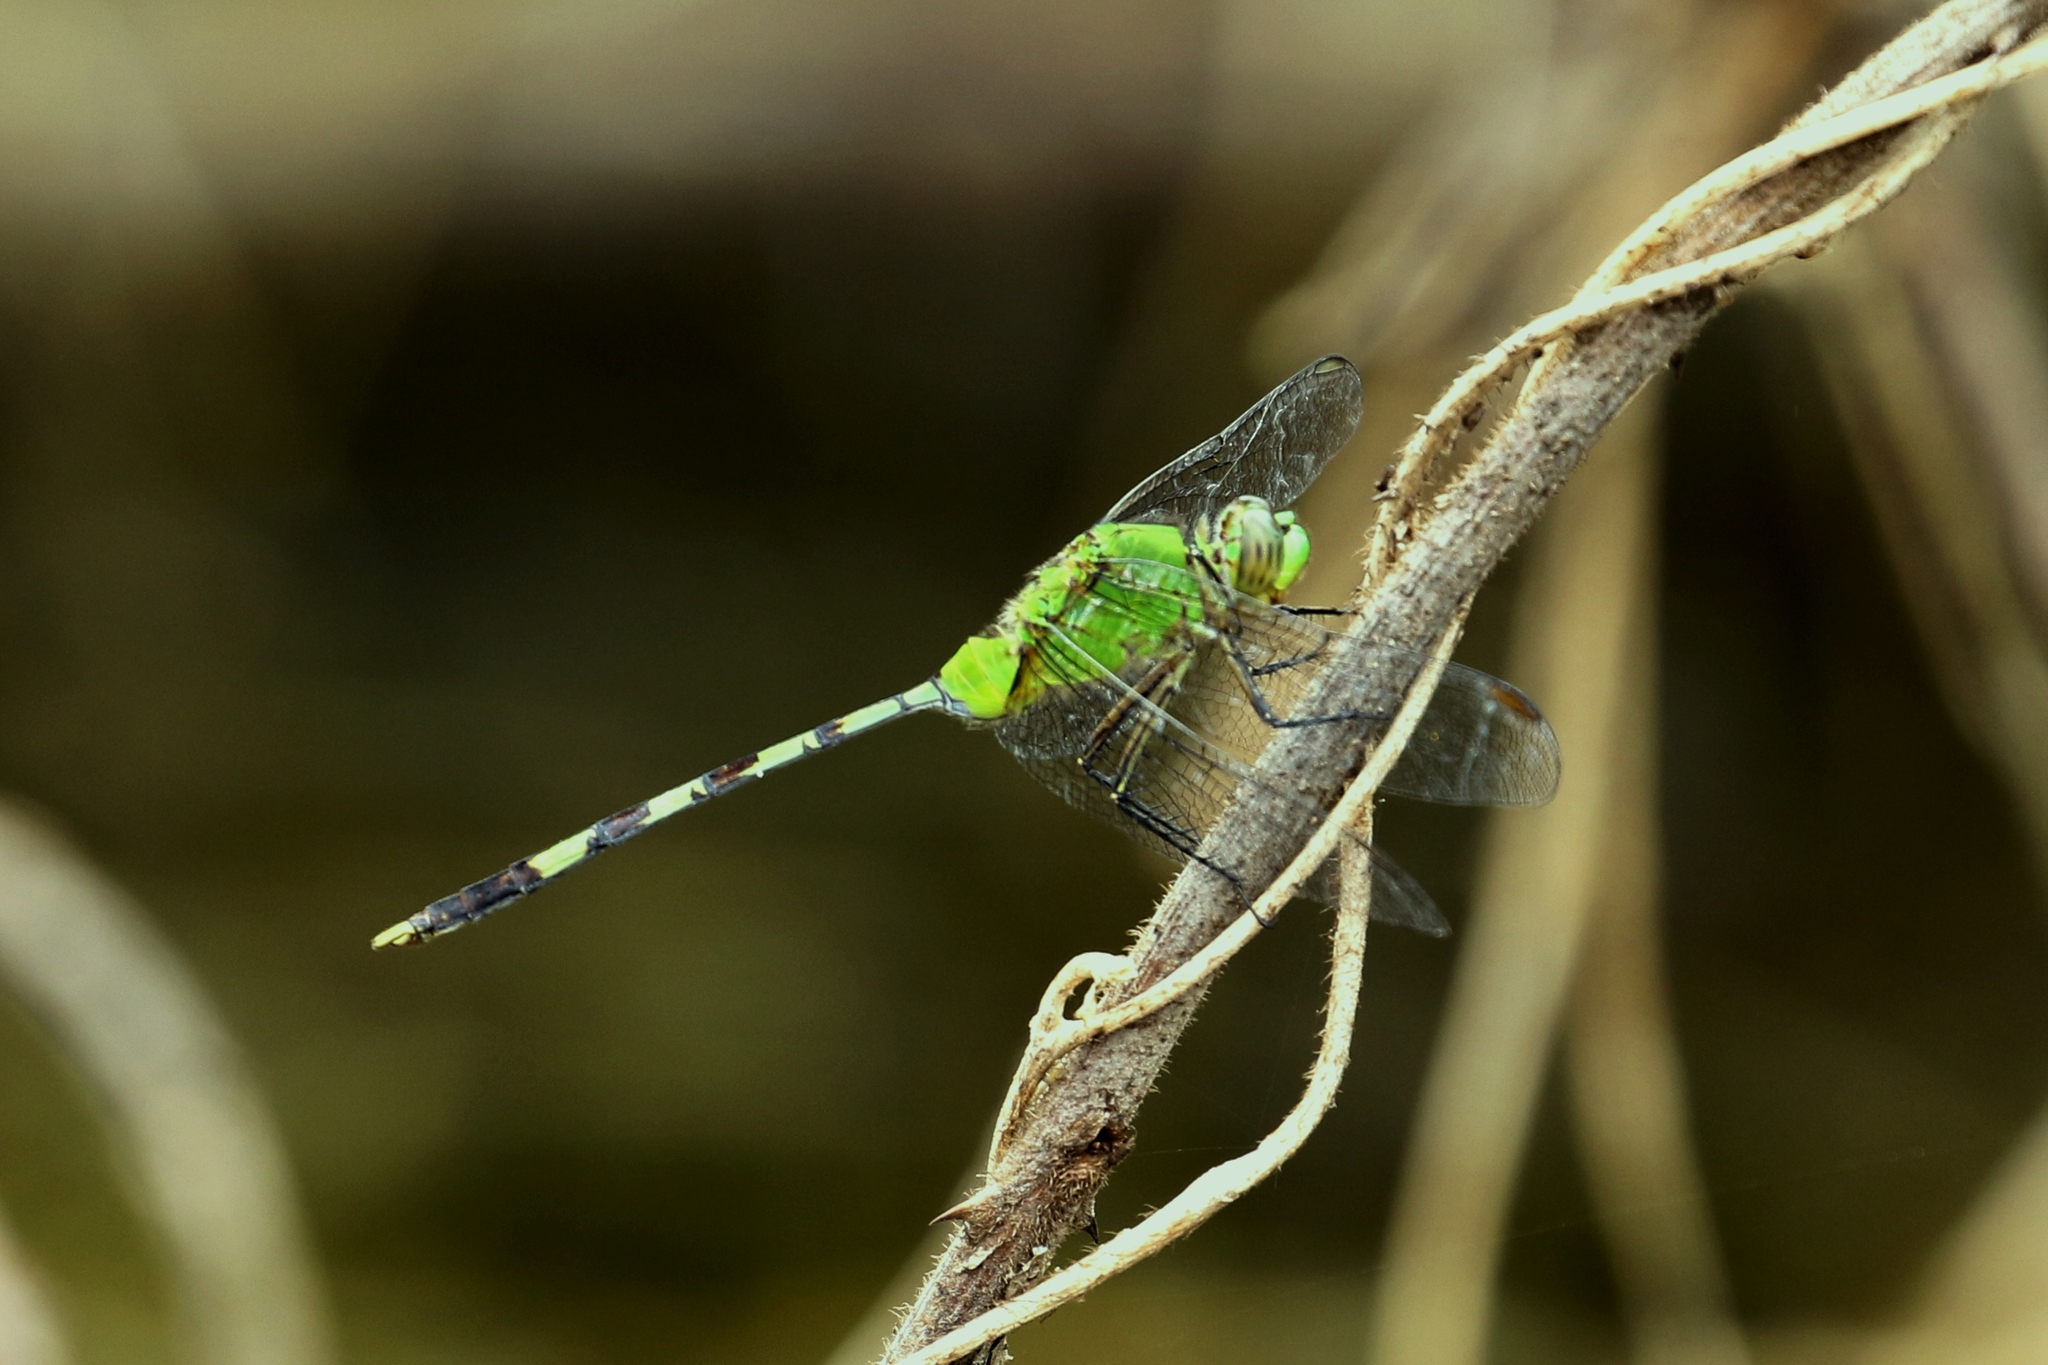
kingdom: Animalia
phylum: Arthropoda
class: Insecta
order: Odonata
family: Libellulidae
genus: Erythemis
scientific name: Erythemis vesiculosa
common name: Great pondhawk
